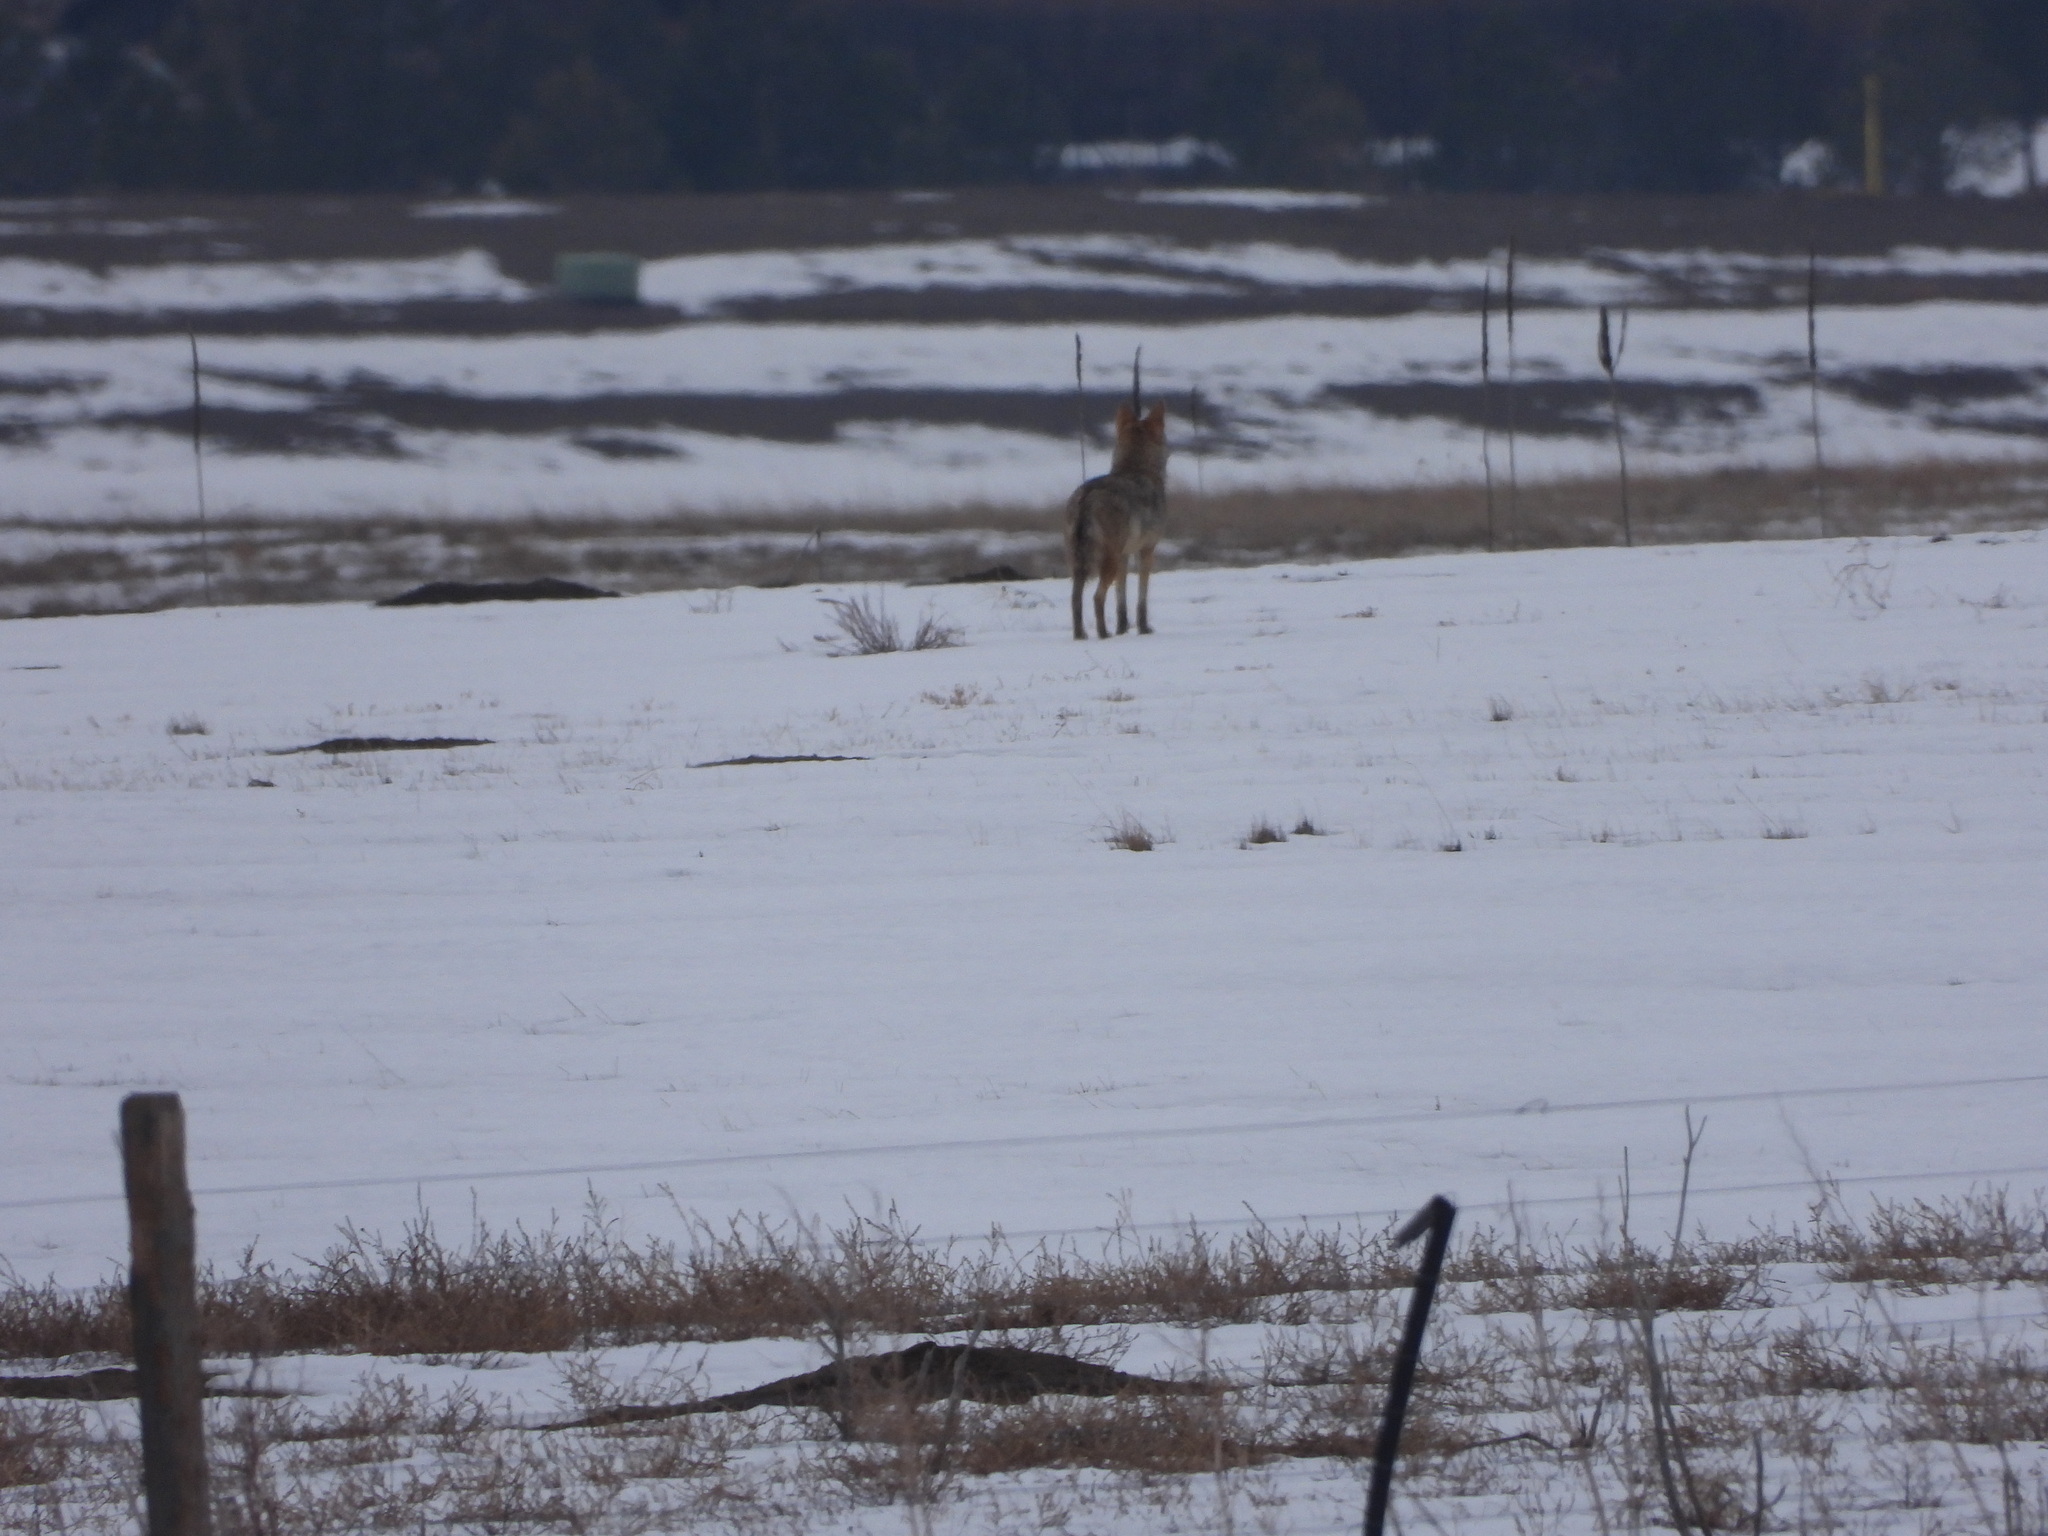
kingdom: Animalia
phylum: Chordata
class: Mammalia
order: Carnivora
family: Canidae
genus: Canis
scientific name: Canis latrans
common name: Coyote
